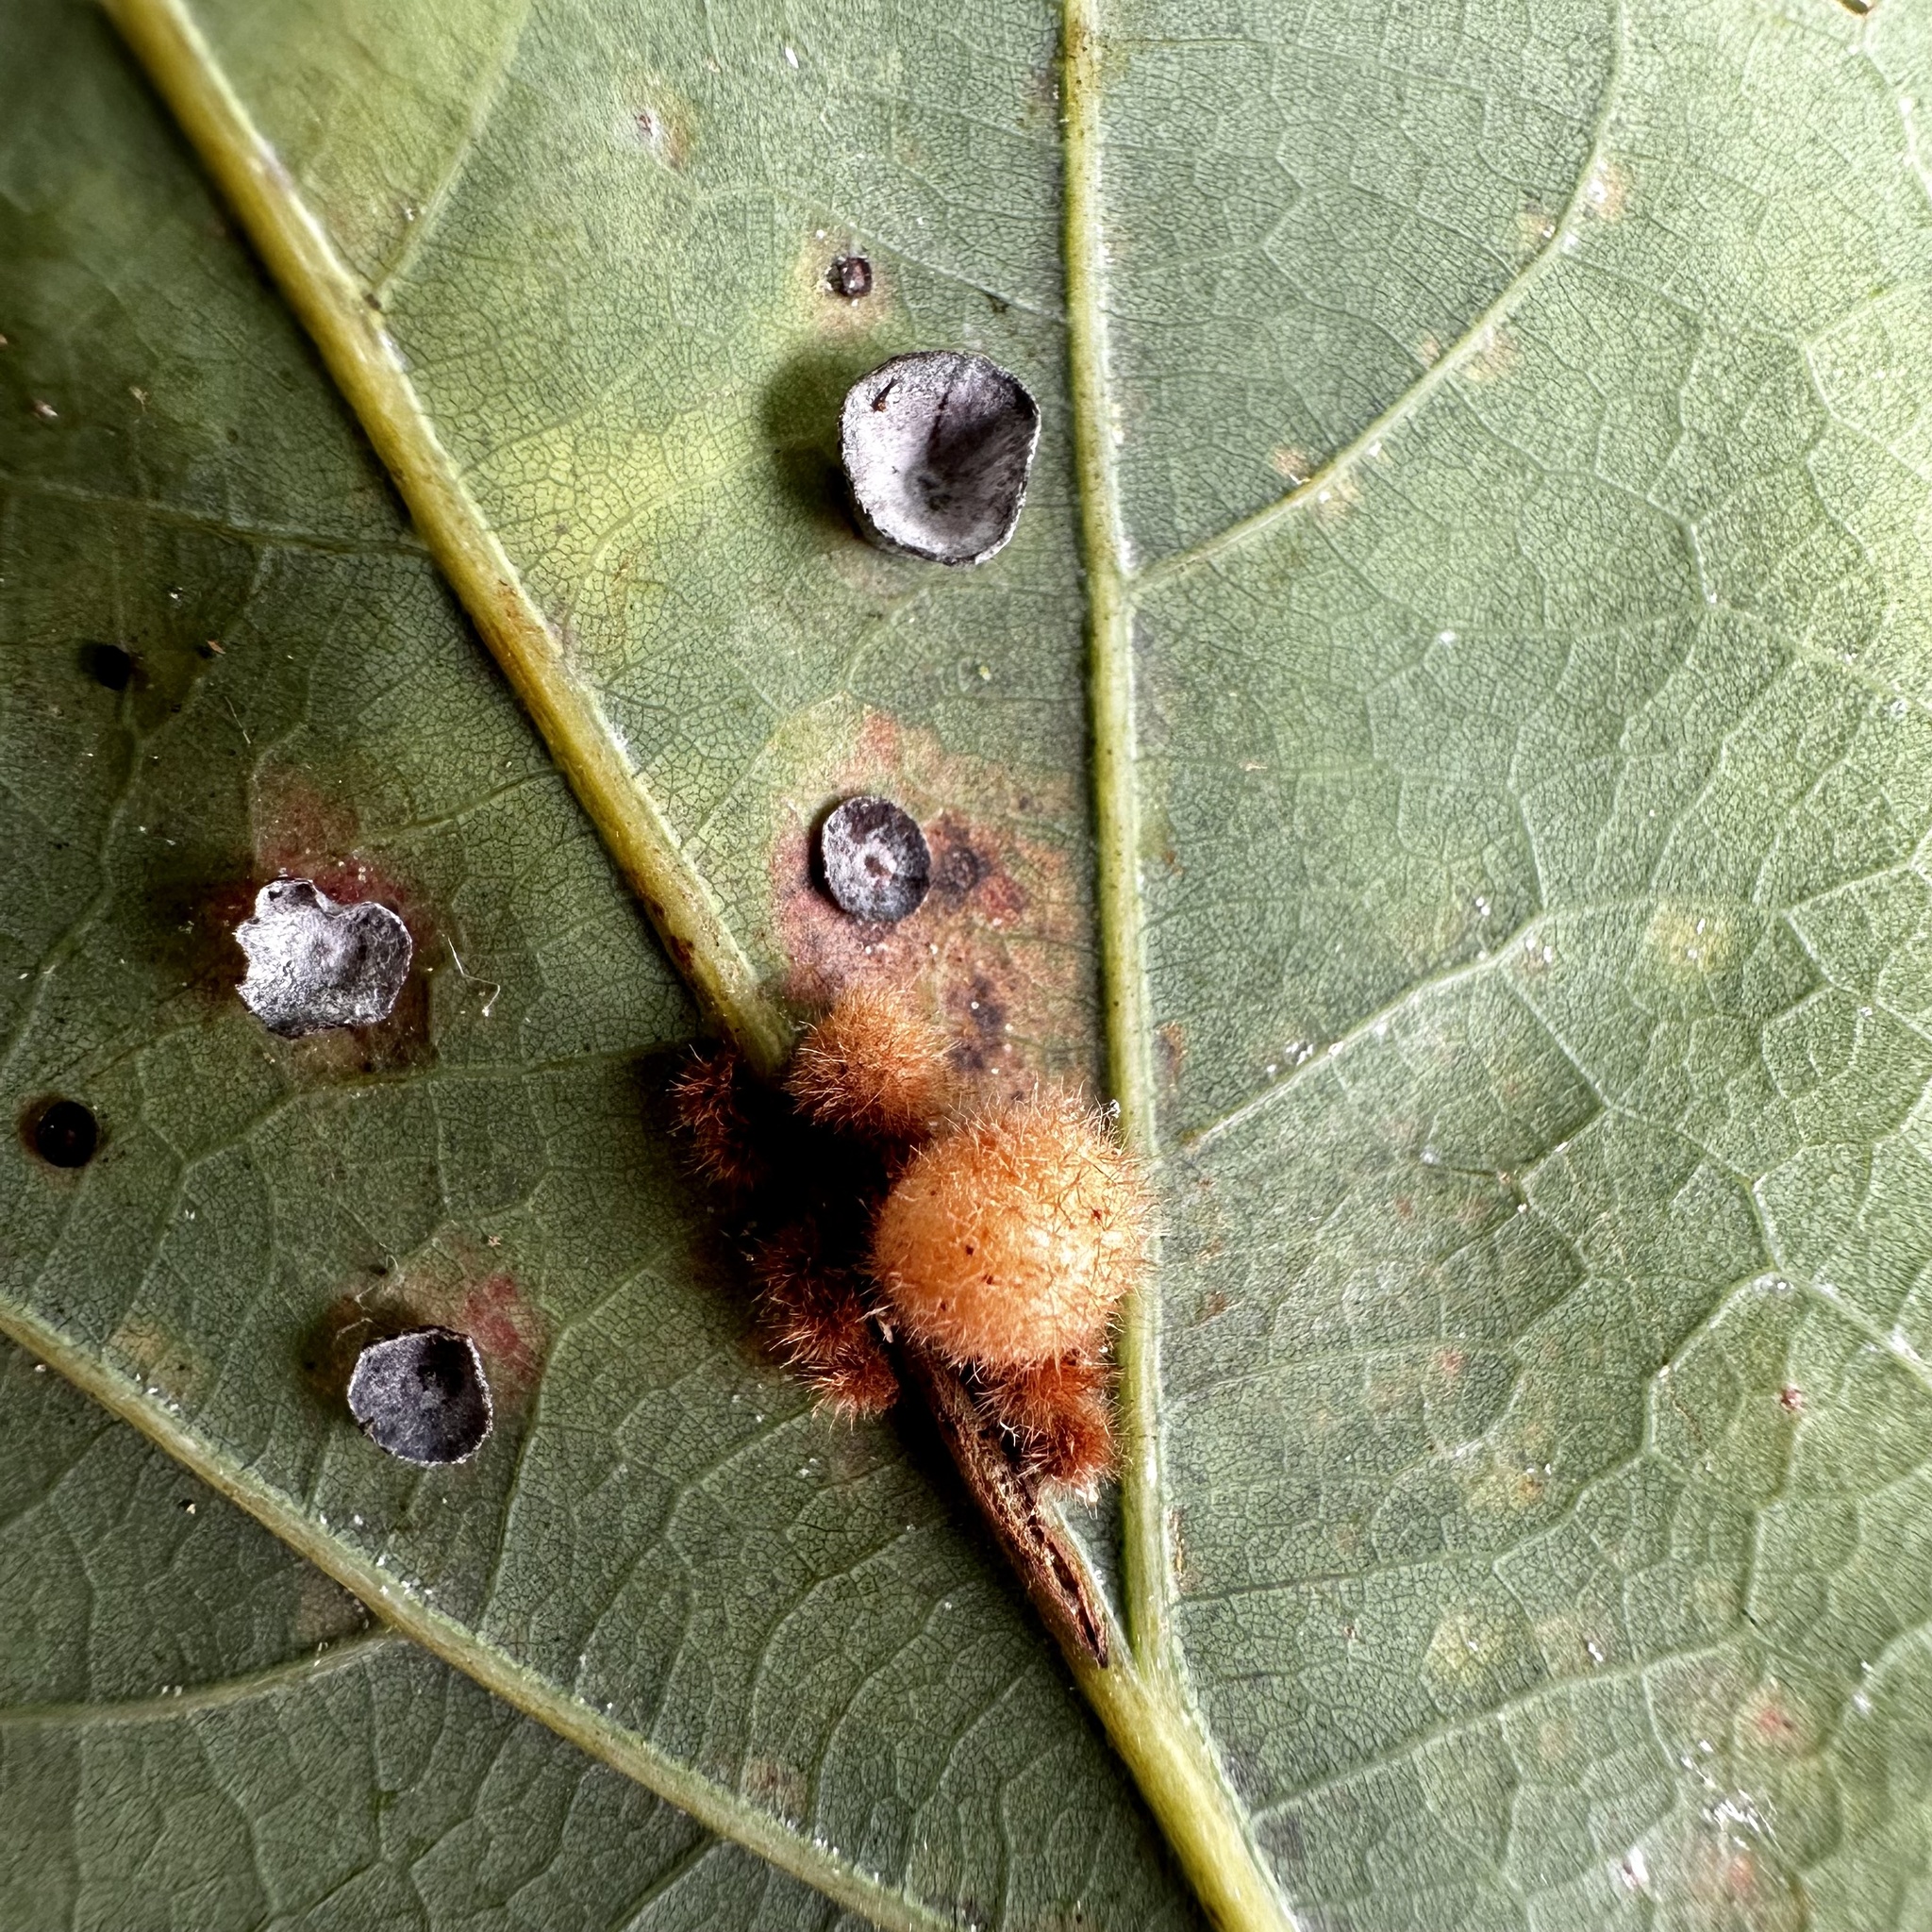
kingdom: Animalia
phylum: Arthropoda
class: Insecta
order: Hymenoptera
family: Cynipidae
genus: Andricus
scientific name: Andricus
